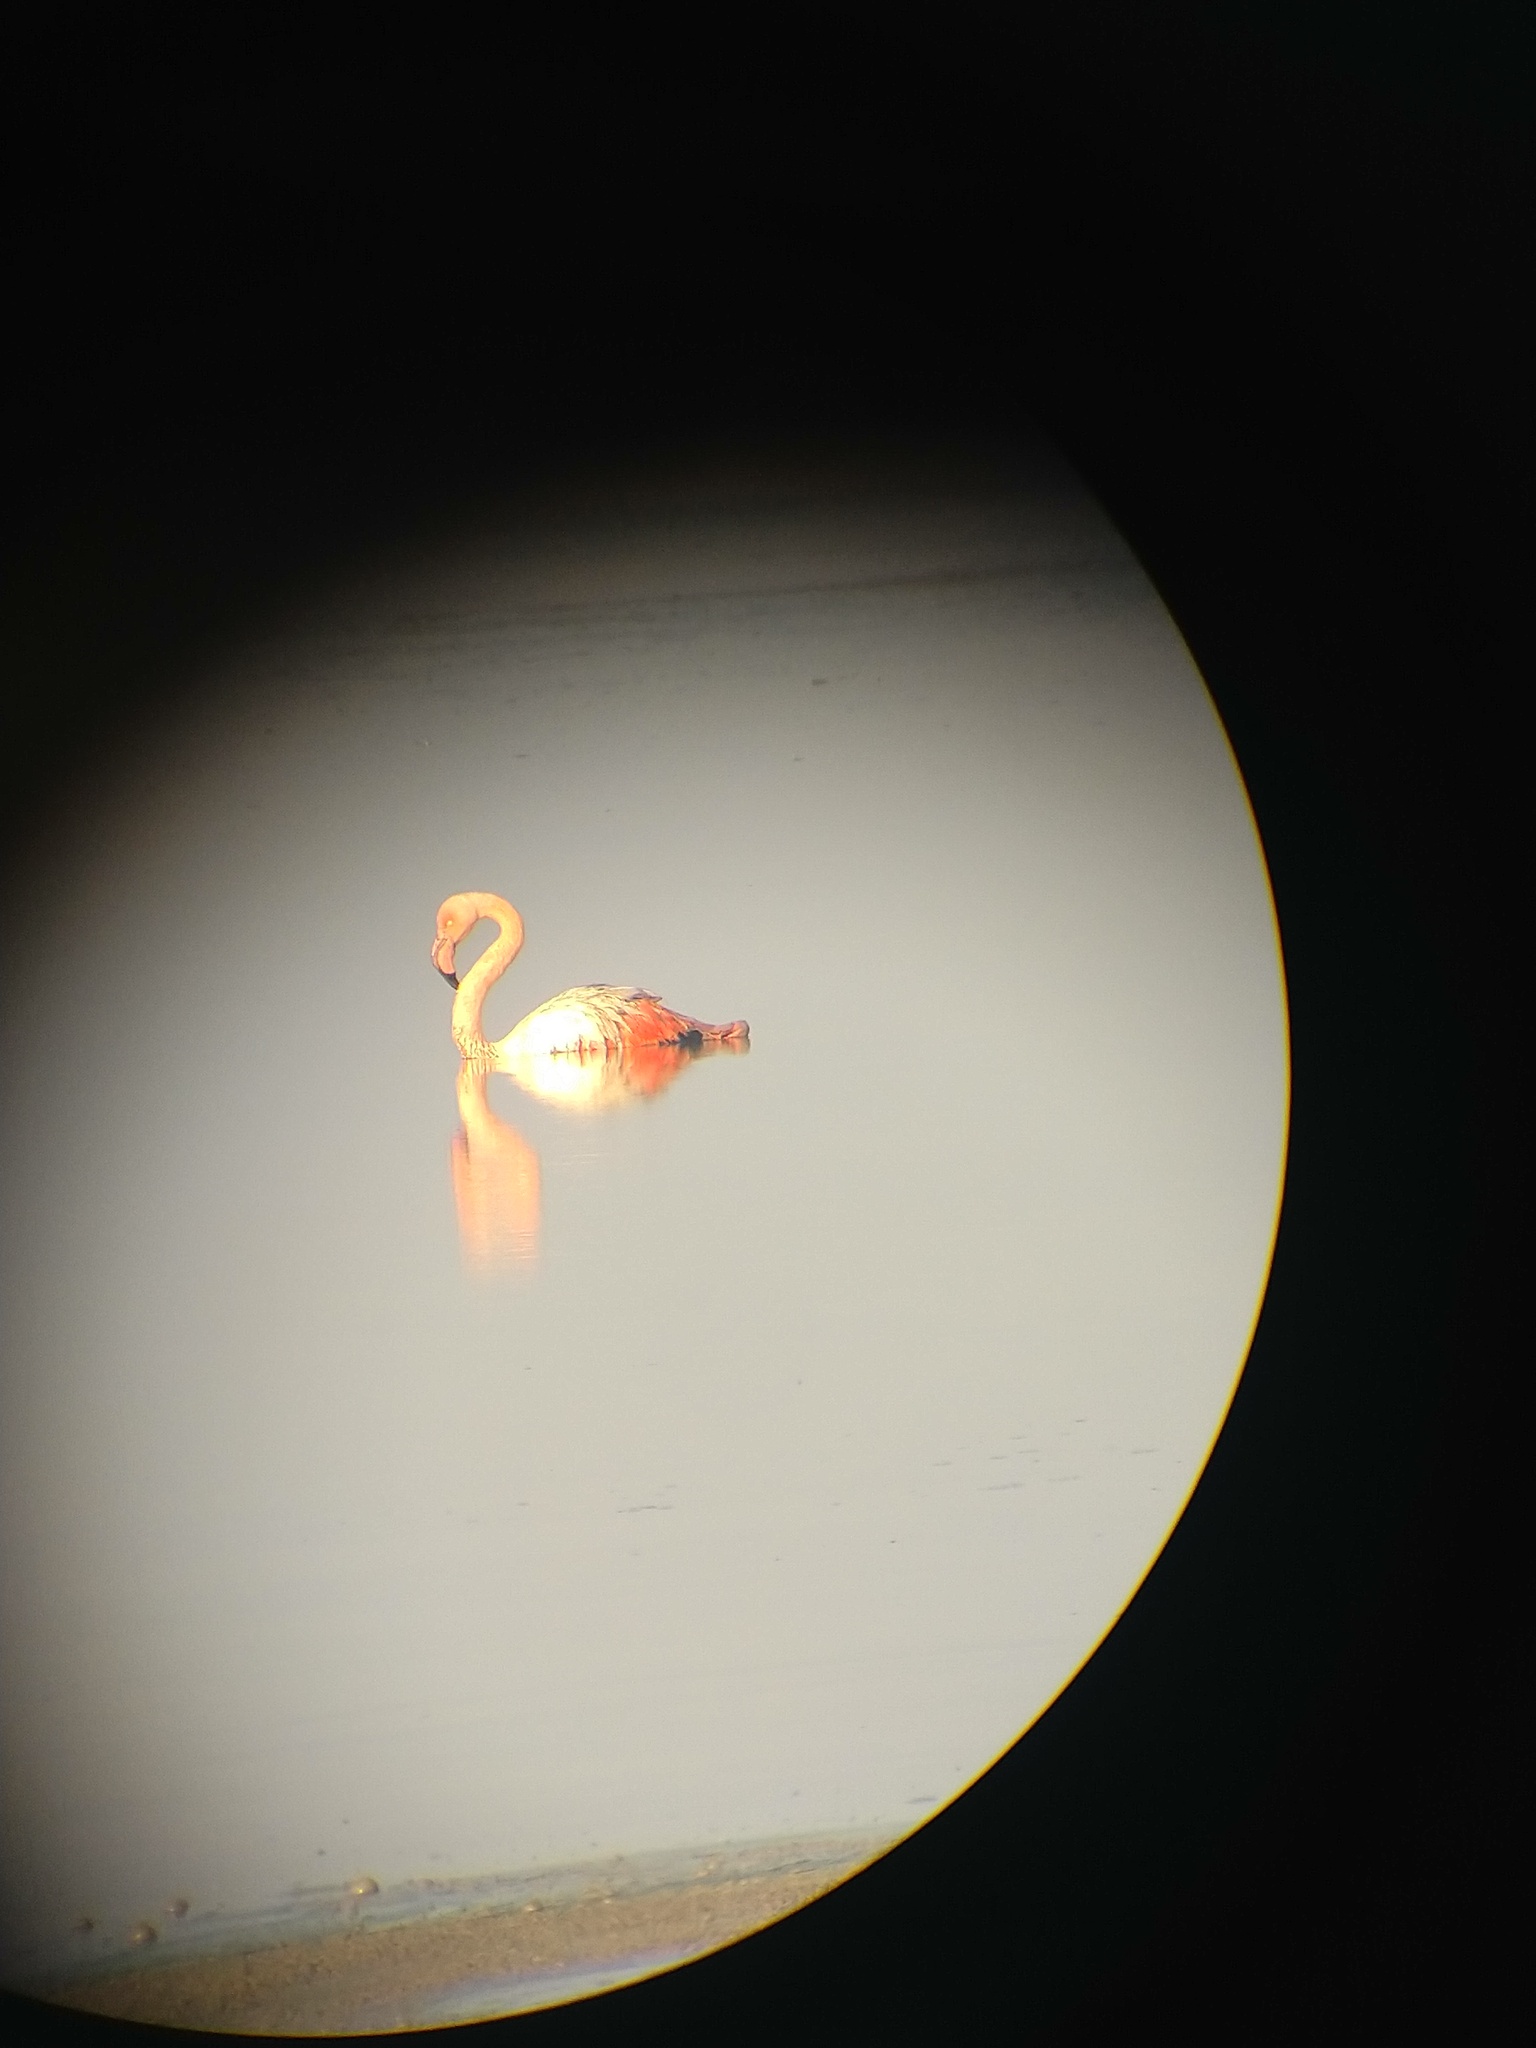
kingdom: Animalia
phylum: Chordata
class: Aves
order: Phoenicopteriformes
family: Phoenicopteridae
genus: Phoenicopterus
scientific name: Phoenicopterus roseus
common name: Greater flamingo
